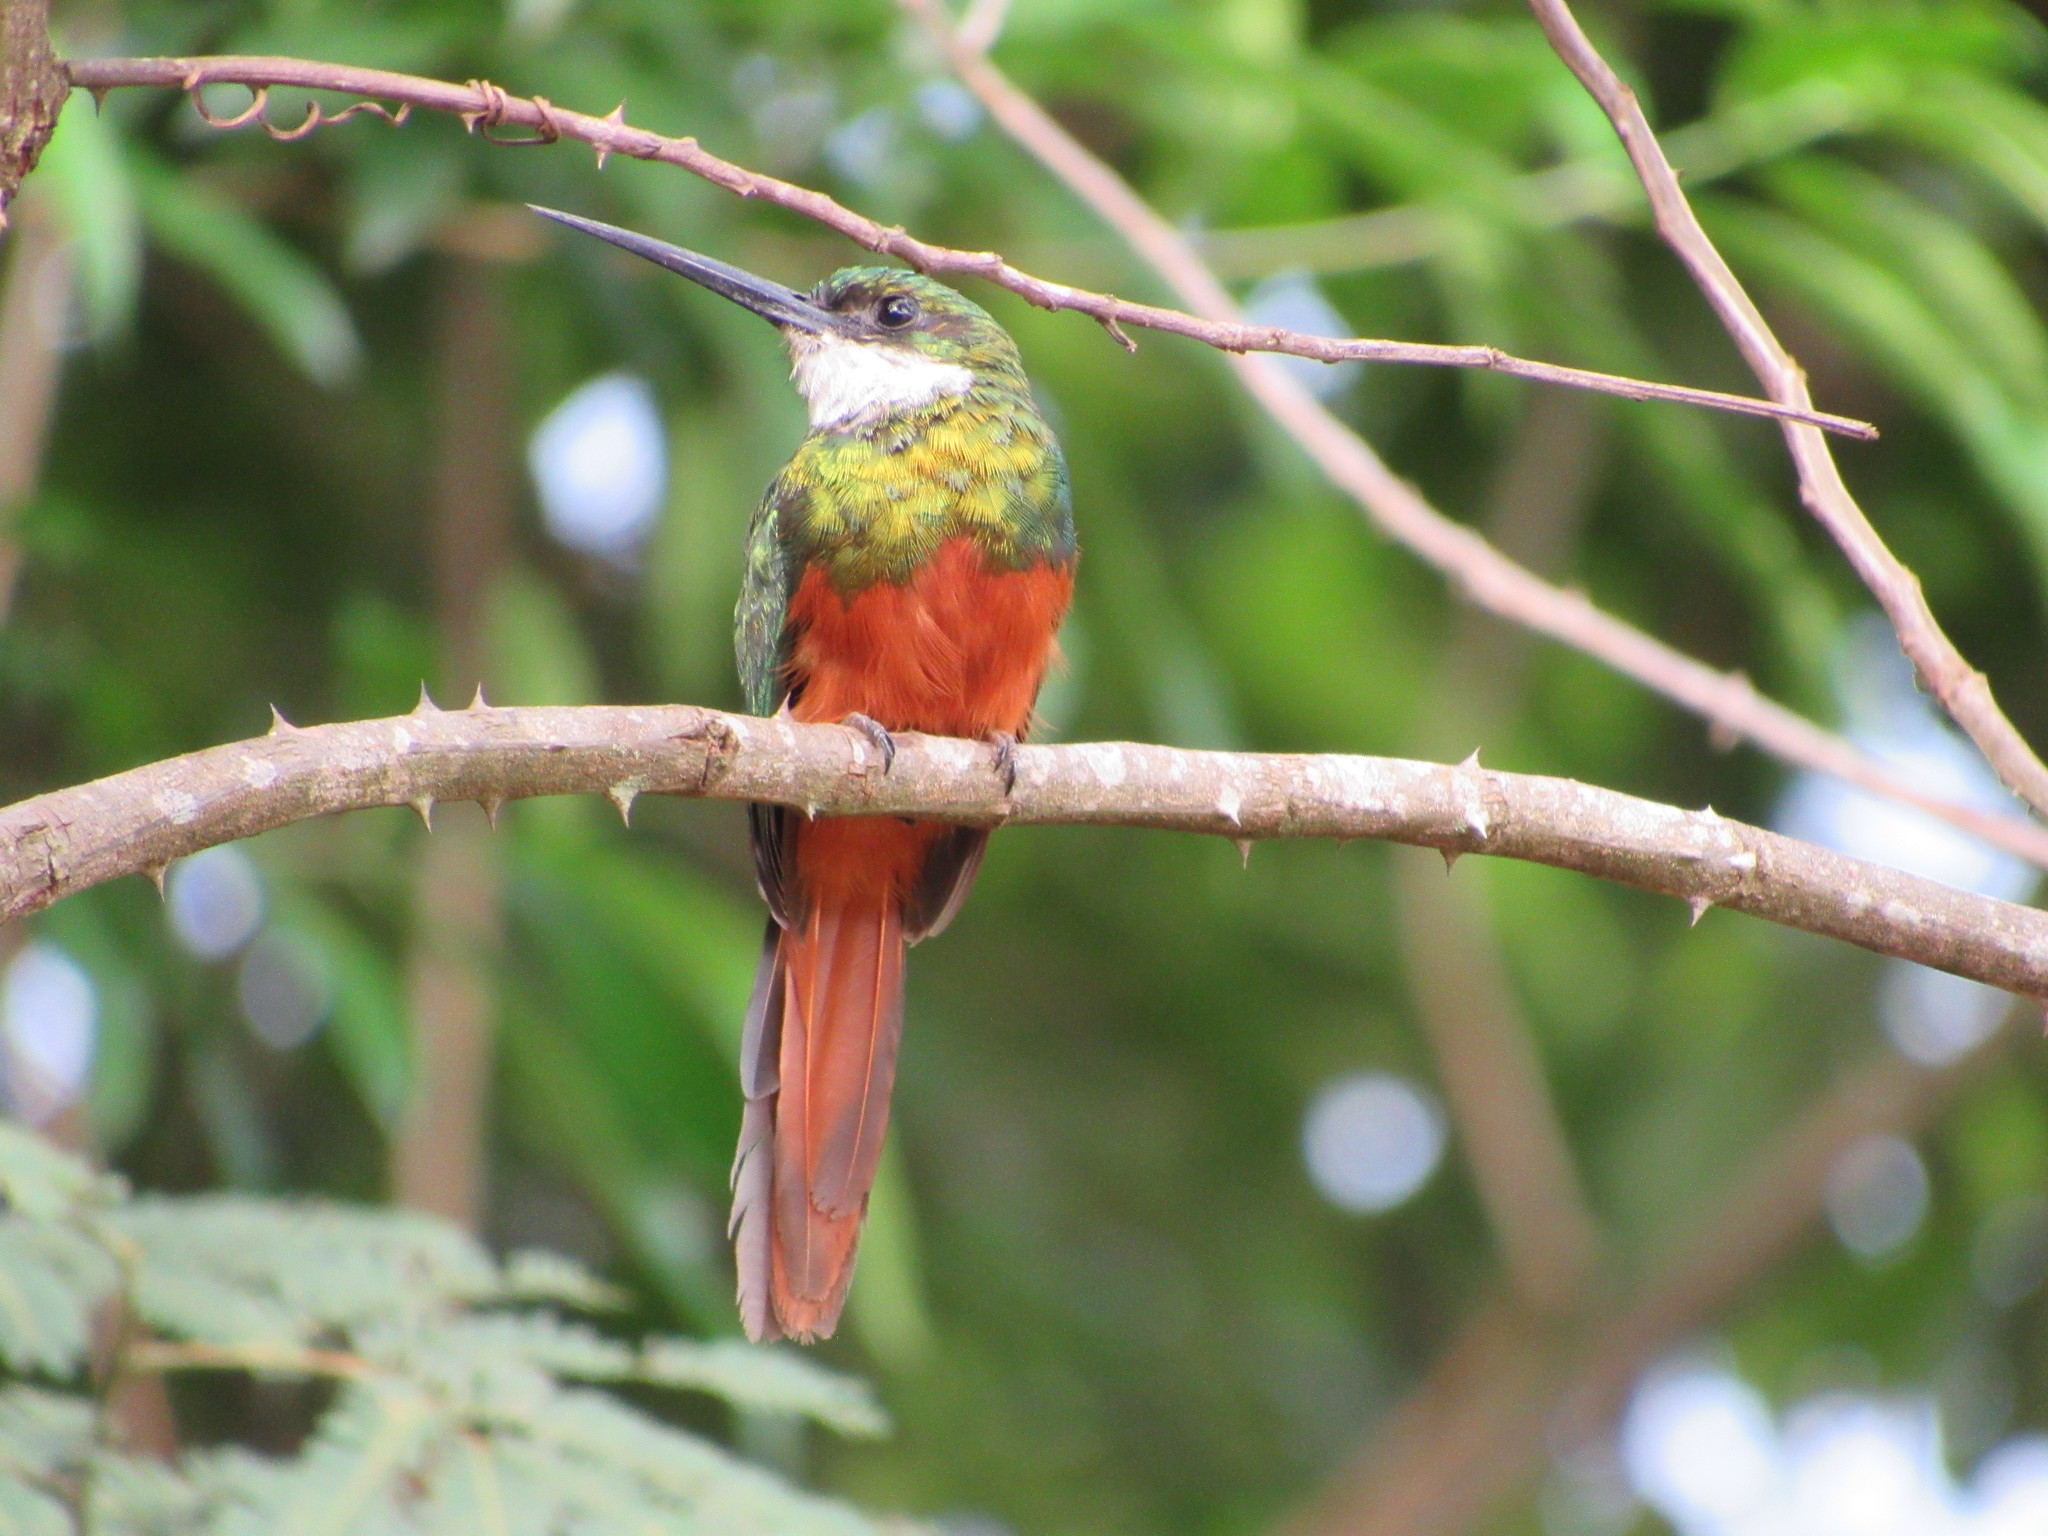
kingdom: Animalia
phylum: Chordata
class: Aves
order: Piciformes
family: Galbulidae
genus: Galbula
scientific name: Galbula ruficauda
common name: Rufous-tailed jacamar
